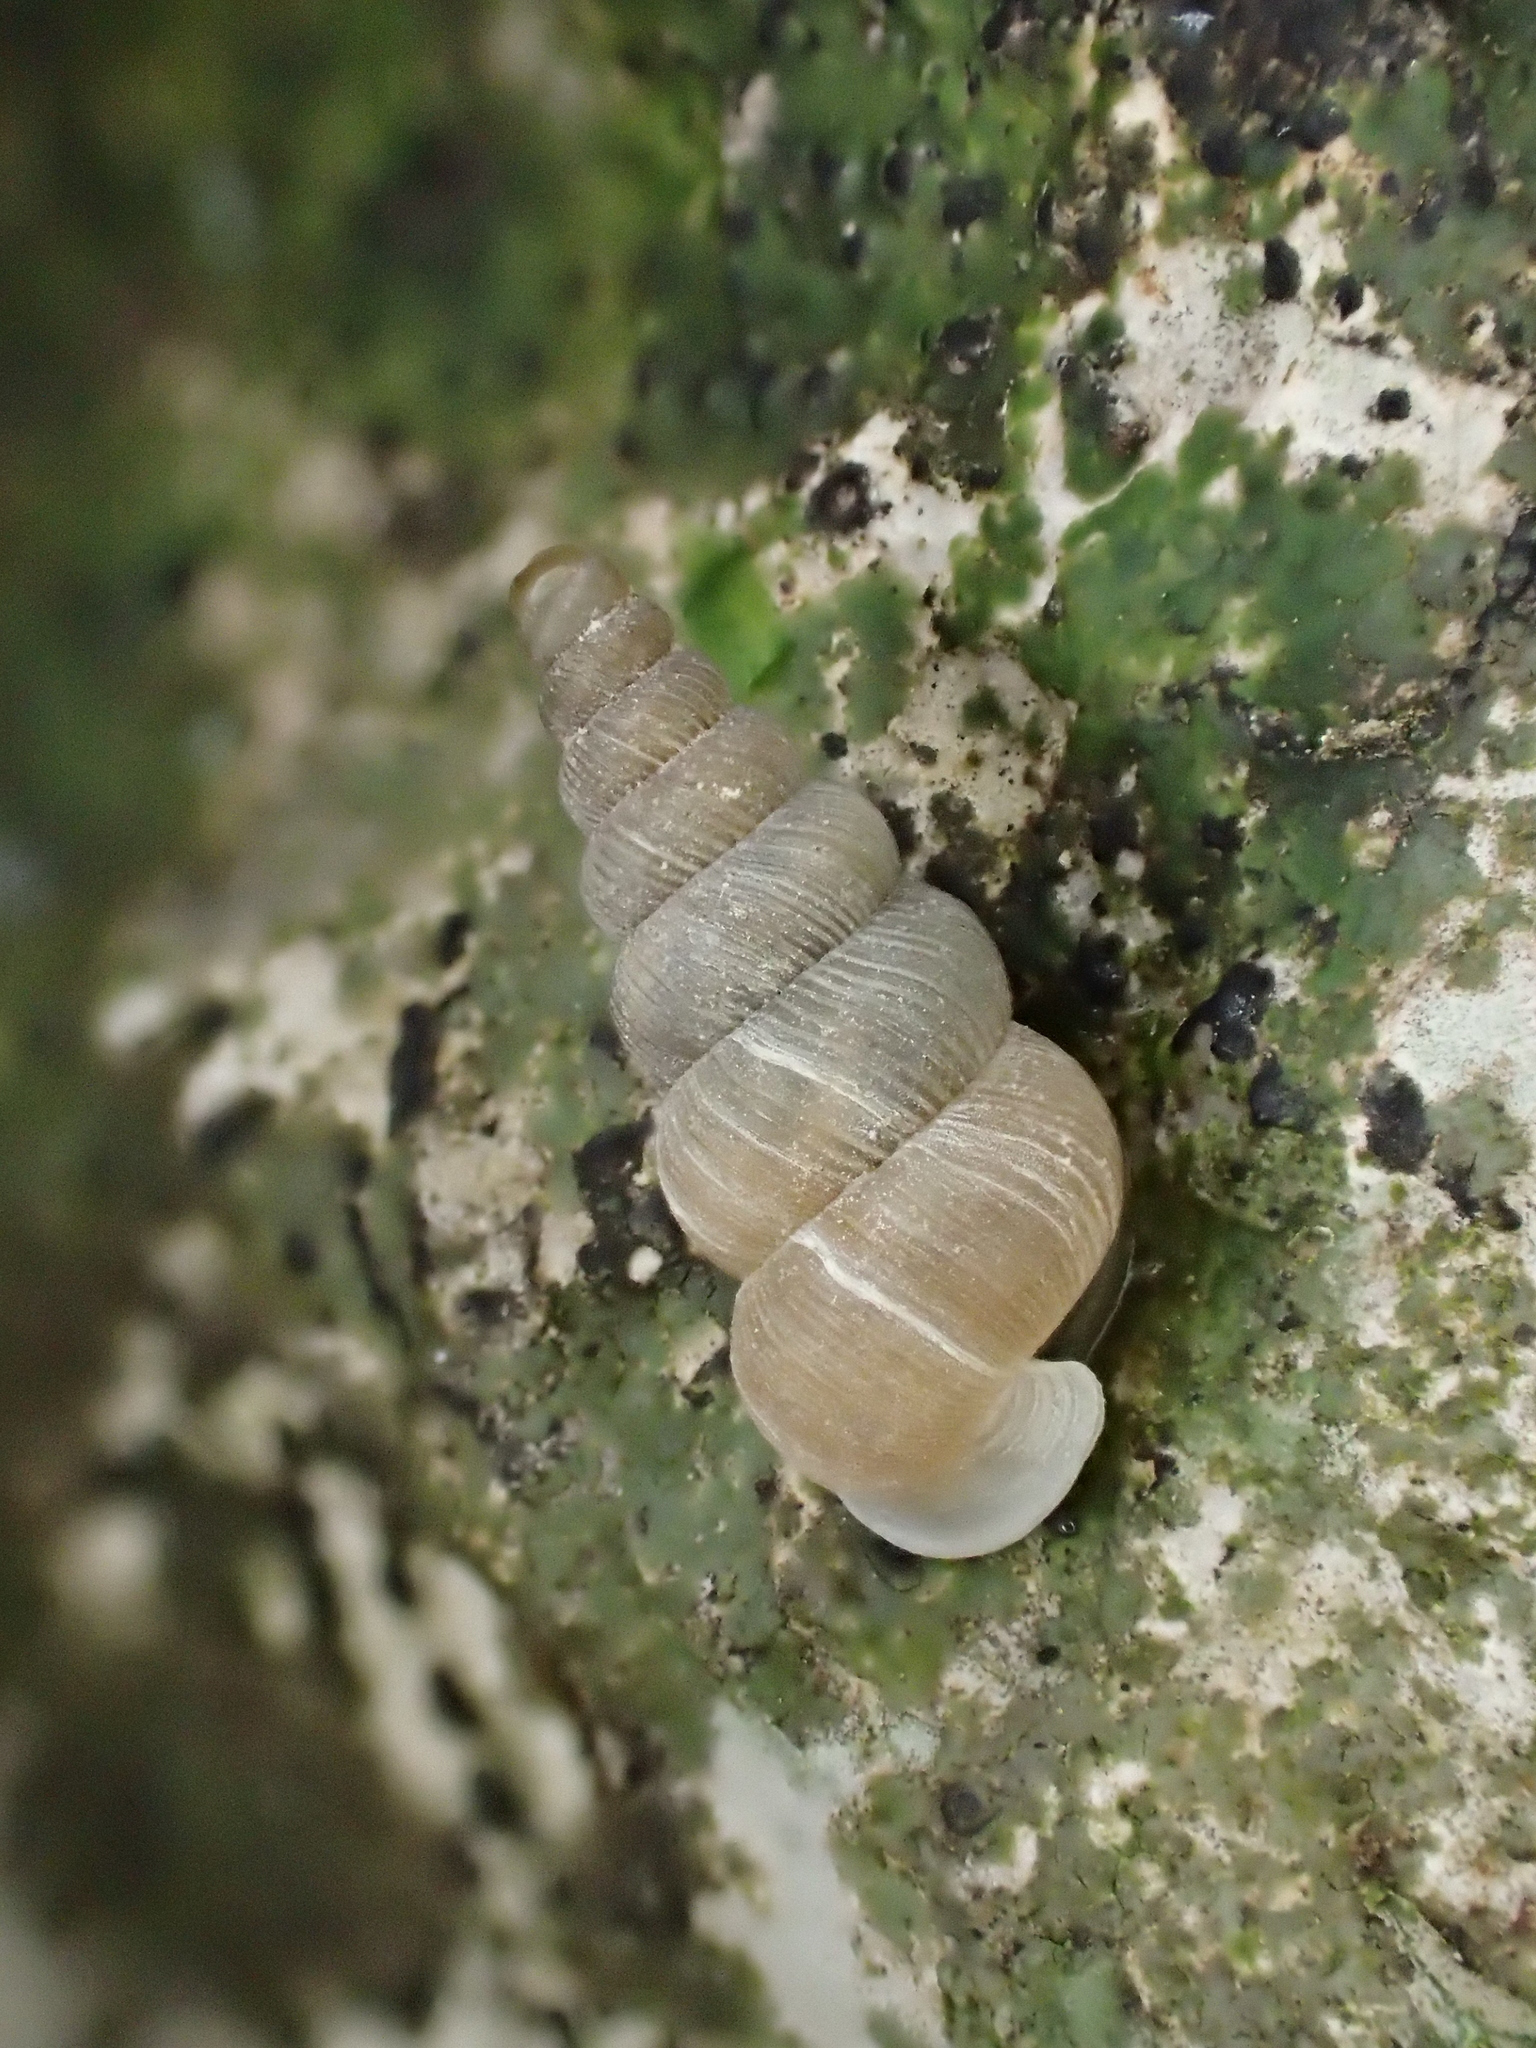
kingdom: Animalia
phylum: Mollusca
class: Gastropoda
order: Architaenioglossa
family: Cochlostomatidae
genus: Cochlostoma
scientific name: Cochlostoma patulum
